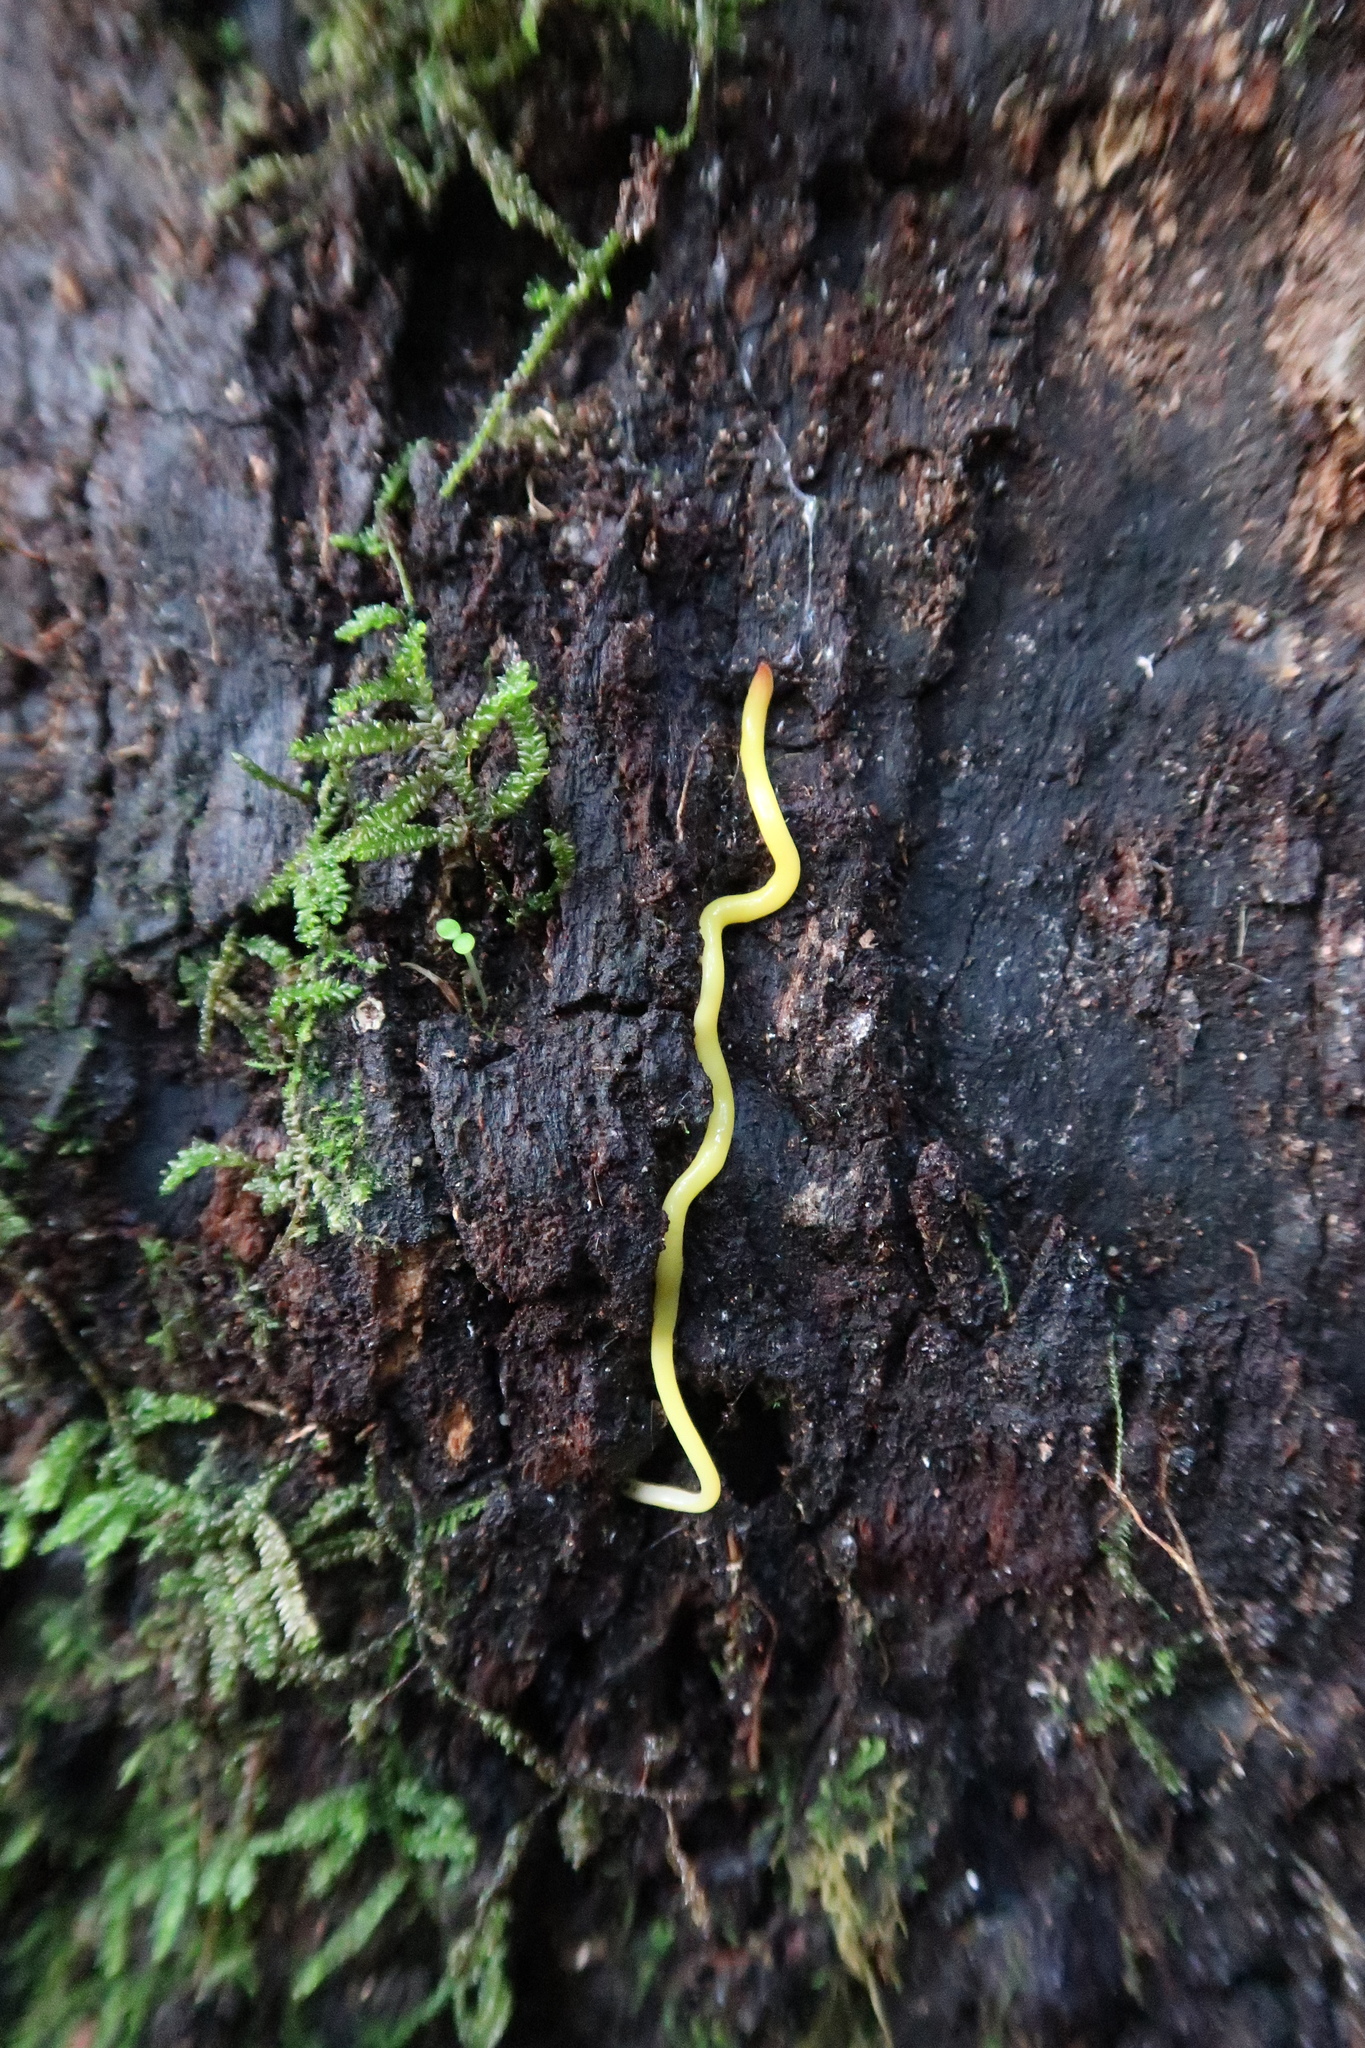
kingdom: Animalia
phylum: Platyhelminthes
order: Tricladida
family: Geoplanidae
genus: Fletchamia
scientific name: Fletchamia sugdeni
